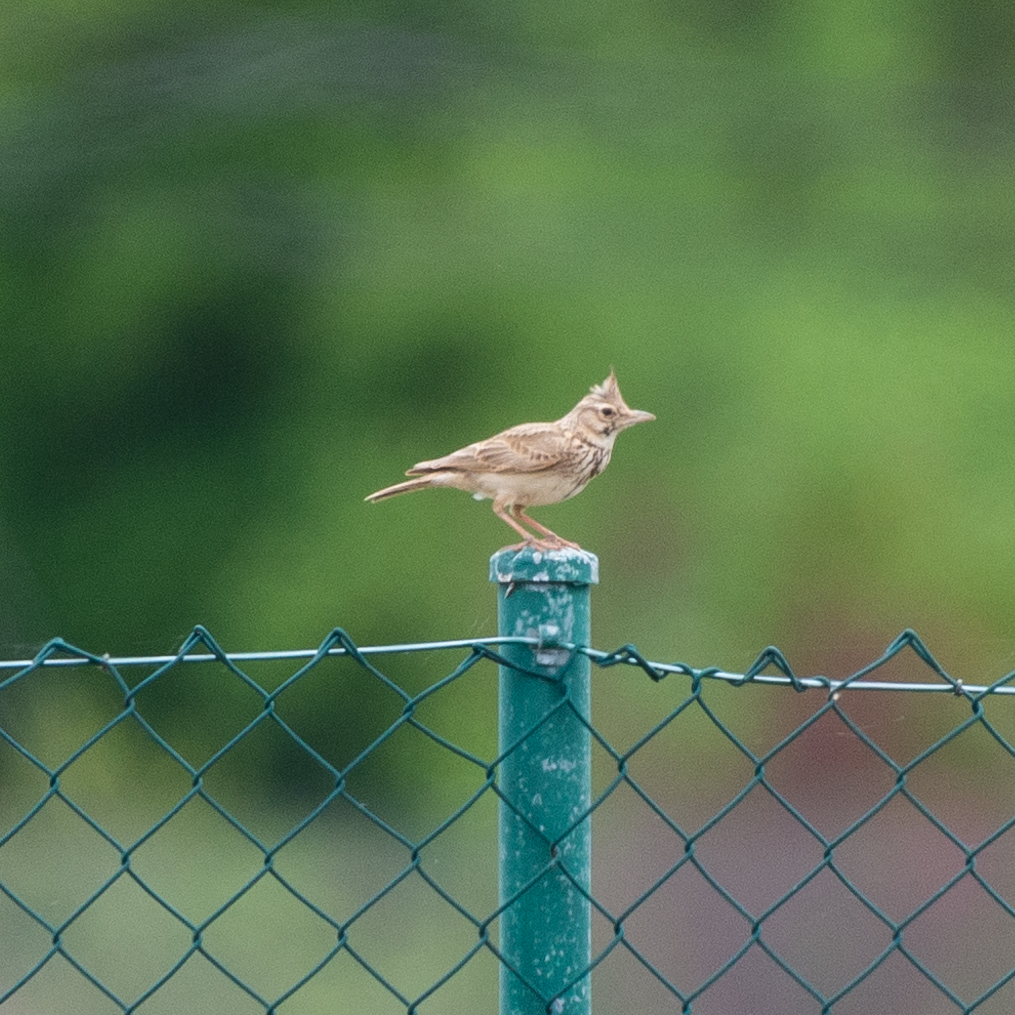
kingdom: Animalia
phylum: Chordata
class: Aves
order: Passeriformes
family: Alaudidae
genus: Galerida
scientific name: Galerida cristata
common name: Crested lark
